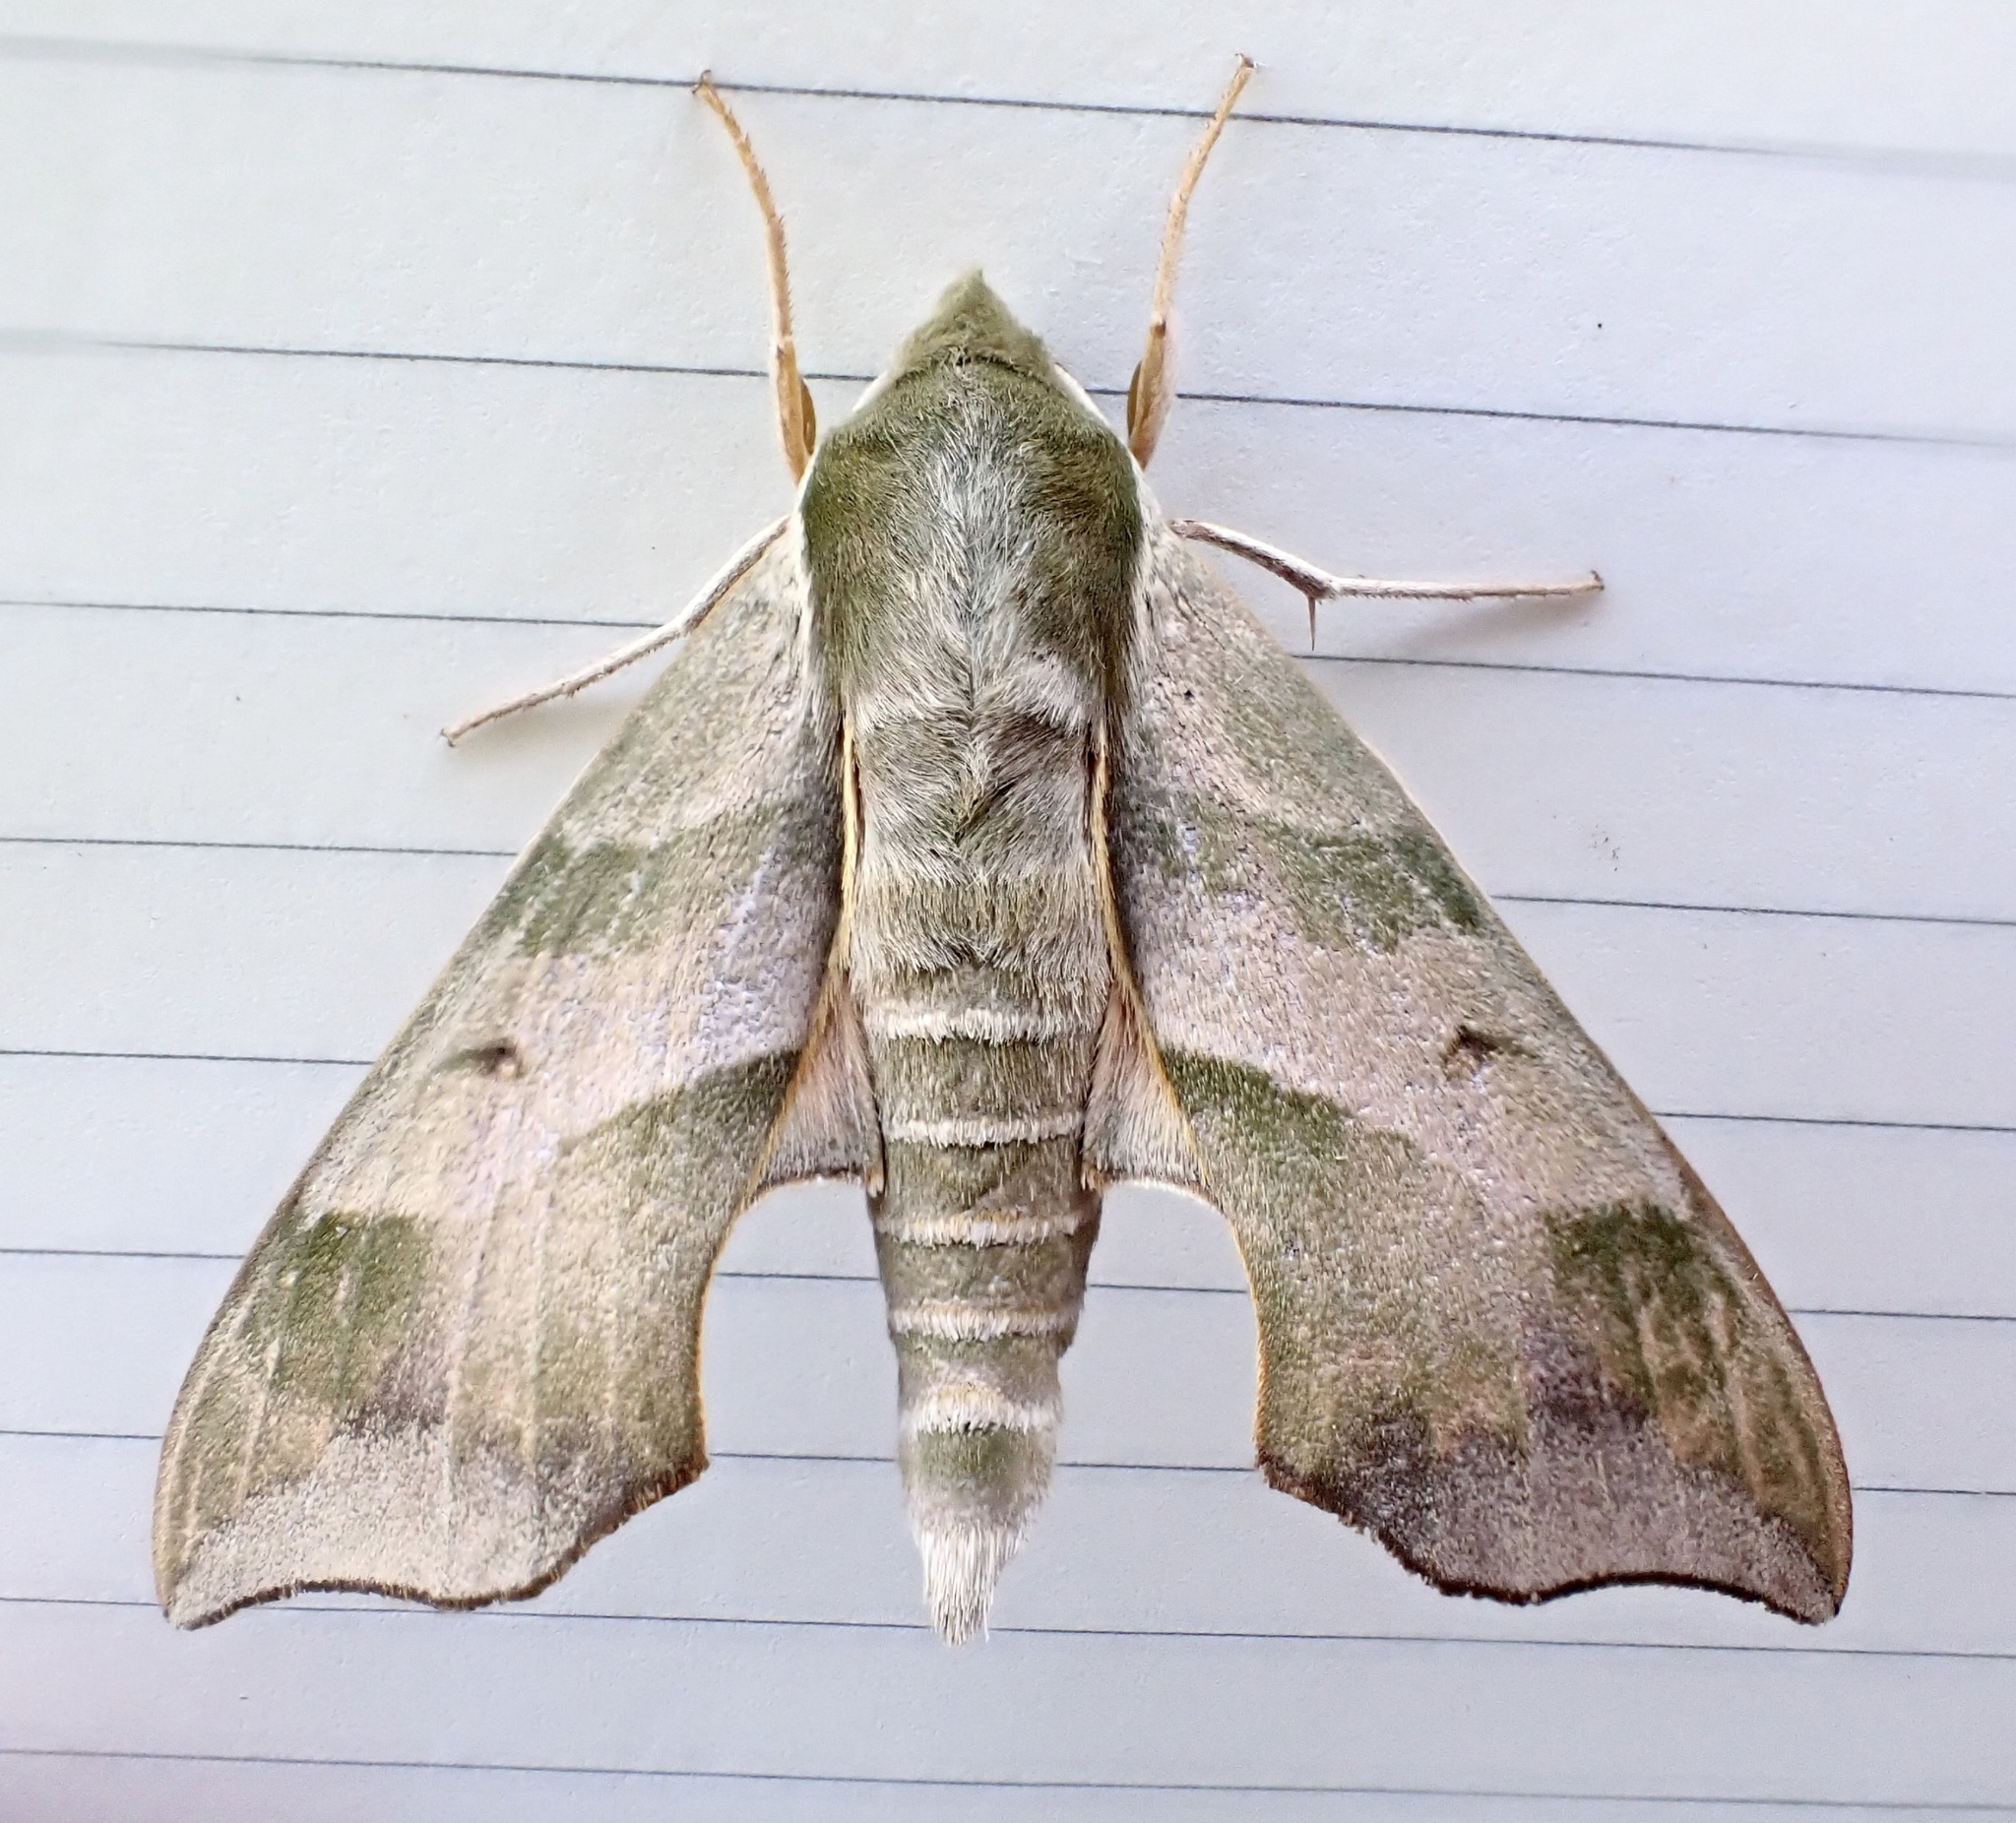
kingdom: Animalia
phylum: Arthropoda
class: Insecta
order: Lepidoptera
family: Sphingidae
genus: Darapsa
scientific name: Darapsa myron
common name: Hog sphinx
